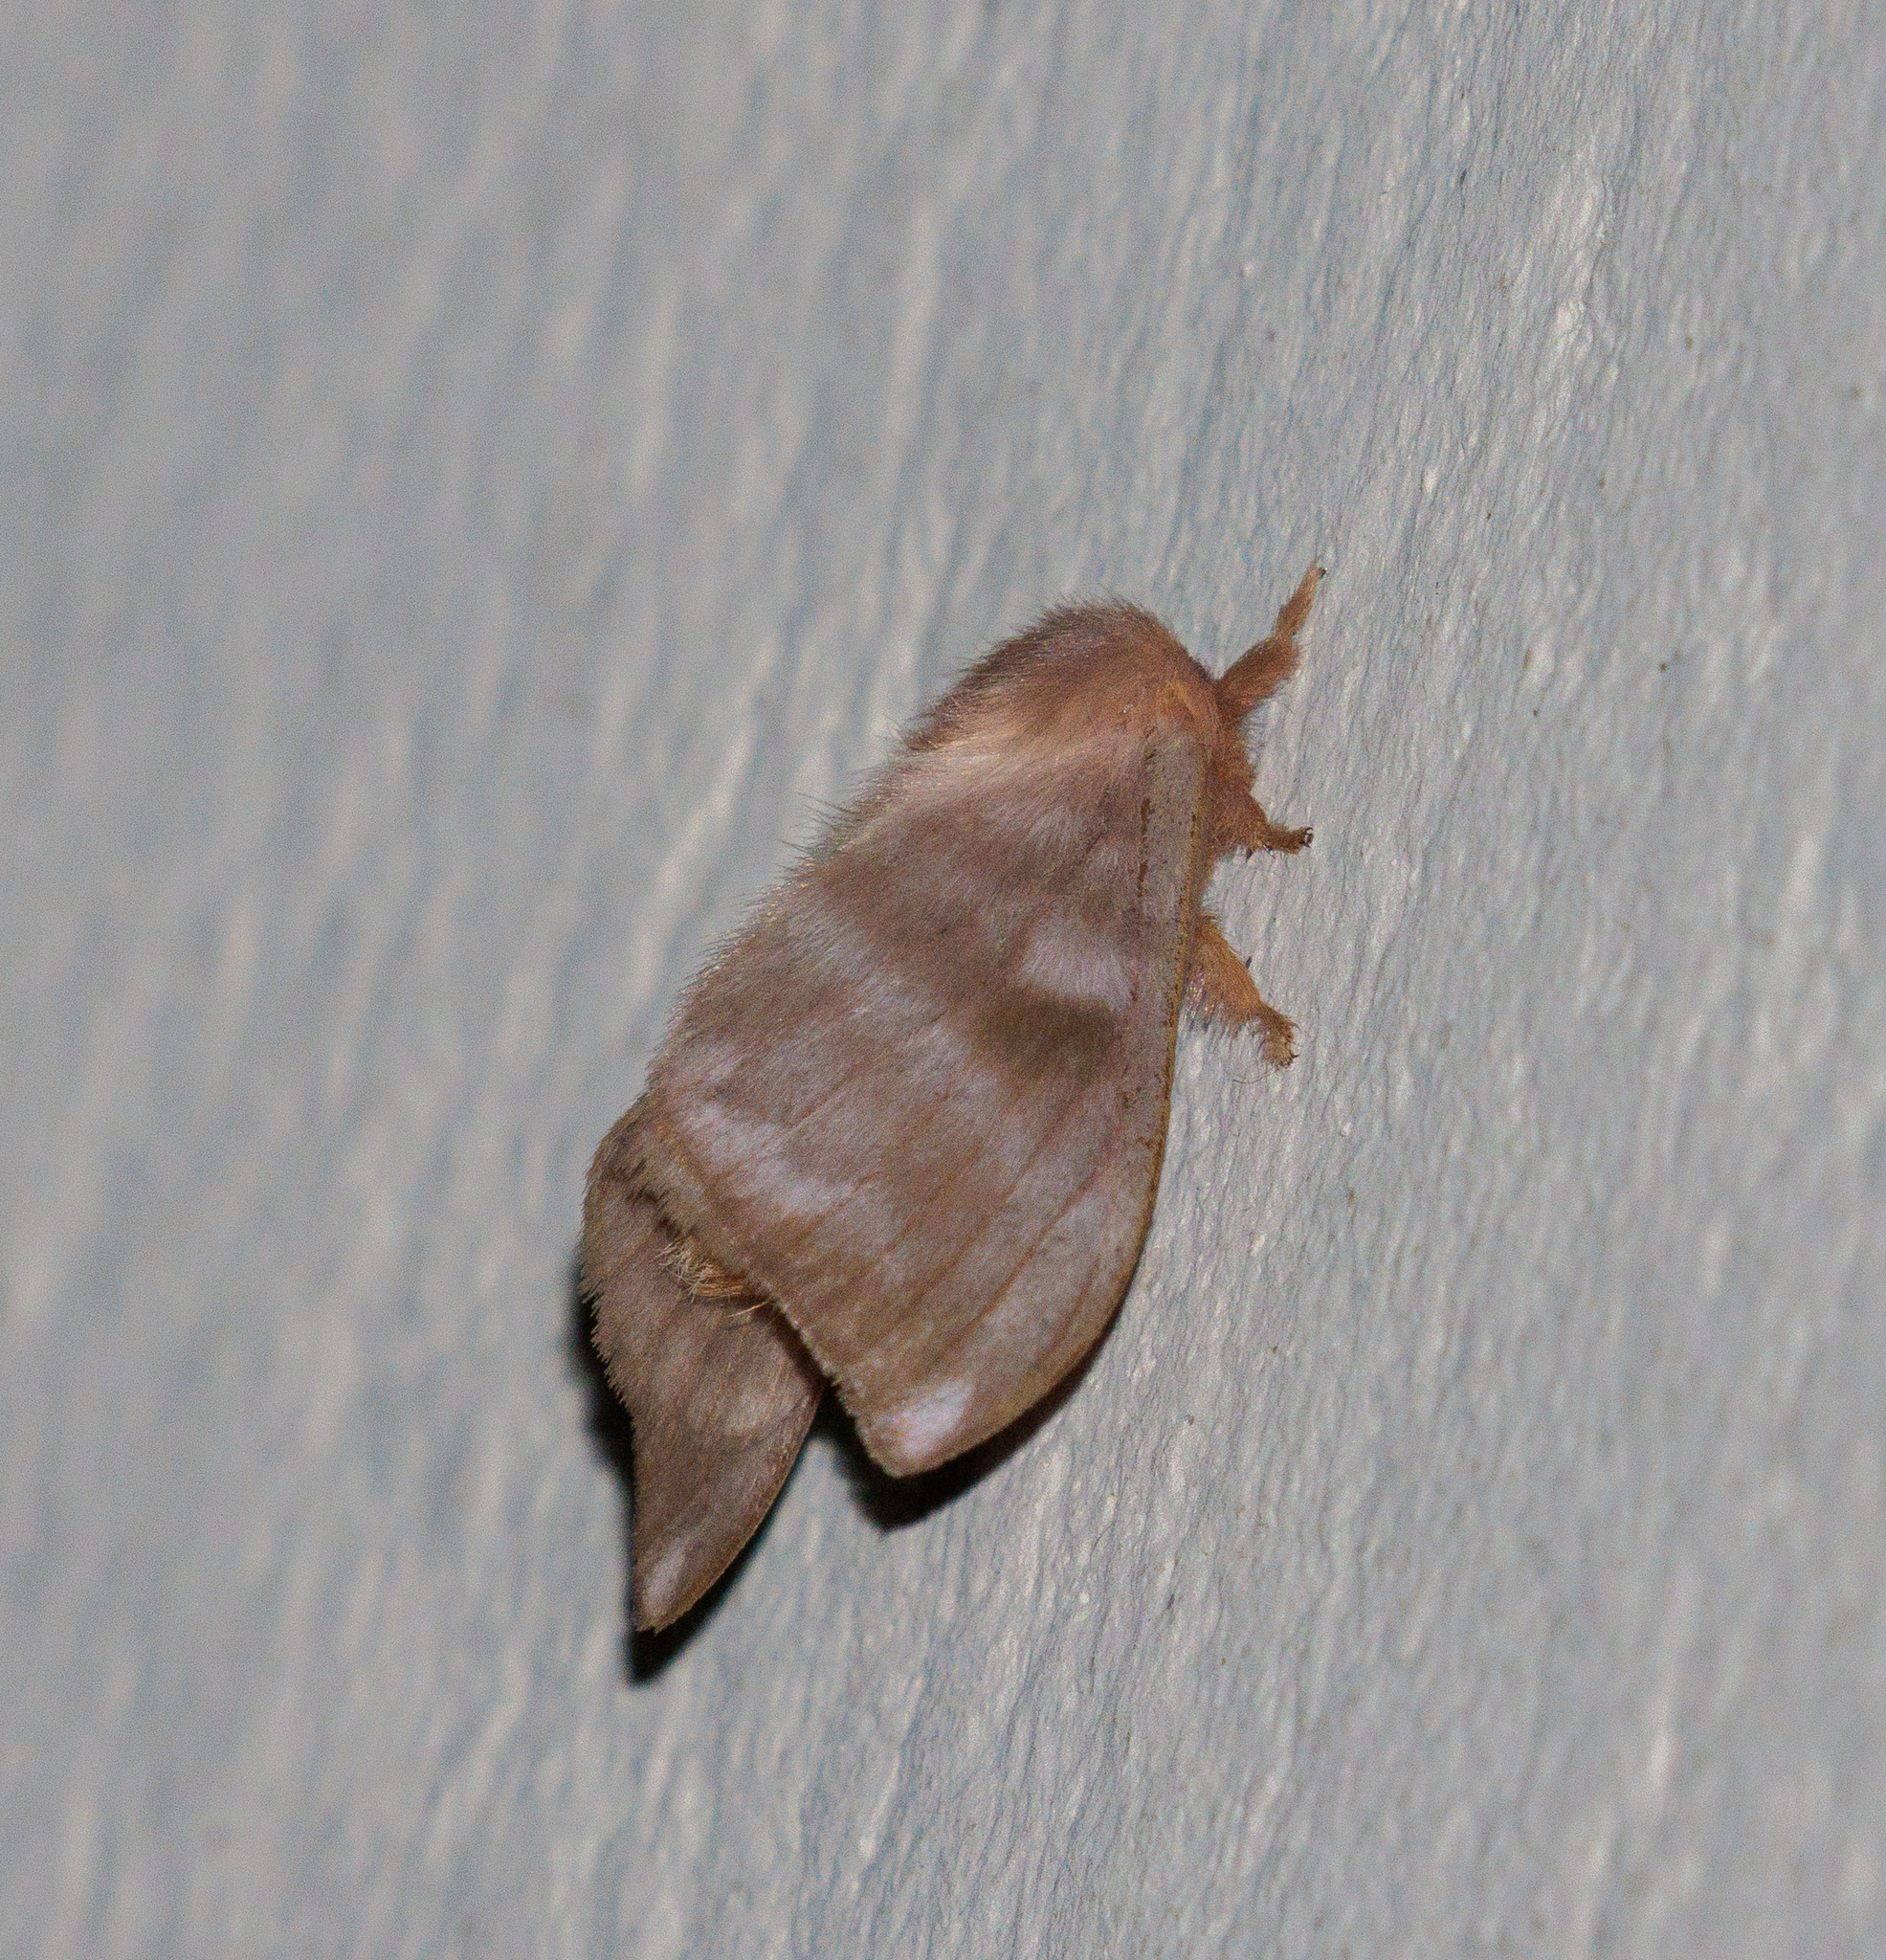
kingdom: Animalia
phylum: Arthropoda
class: Insecta
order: Lepidoptera
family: Saturniidae
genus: Hylesia
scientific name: Hylesia metabus
